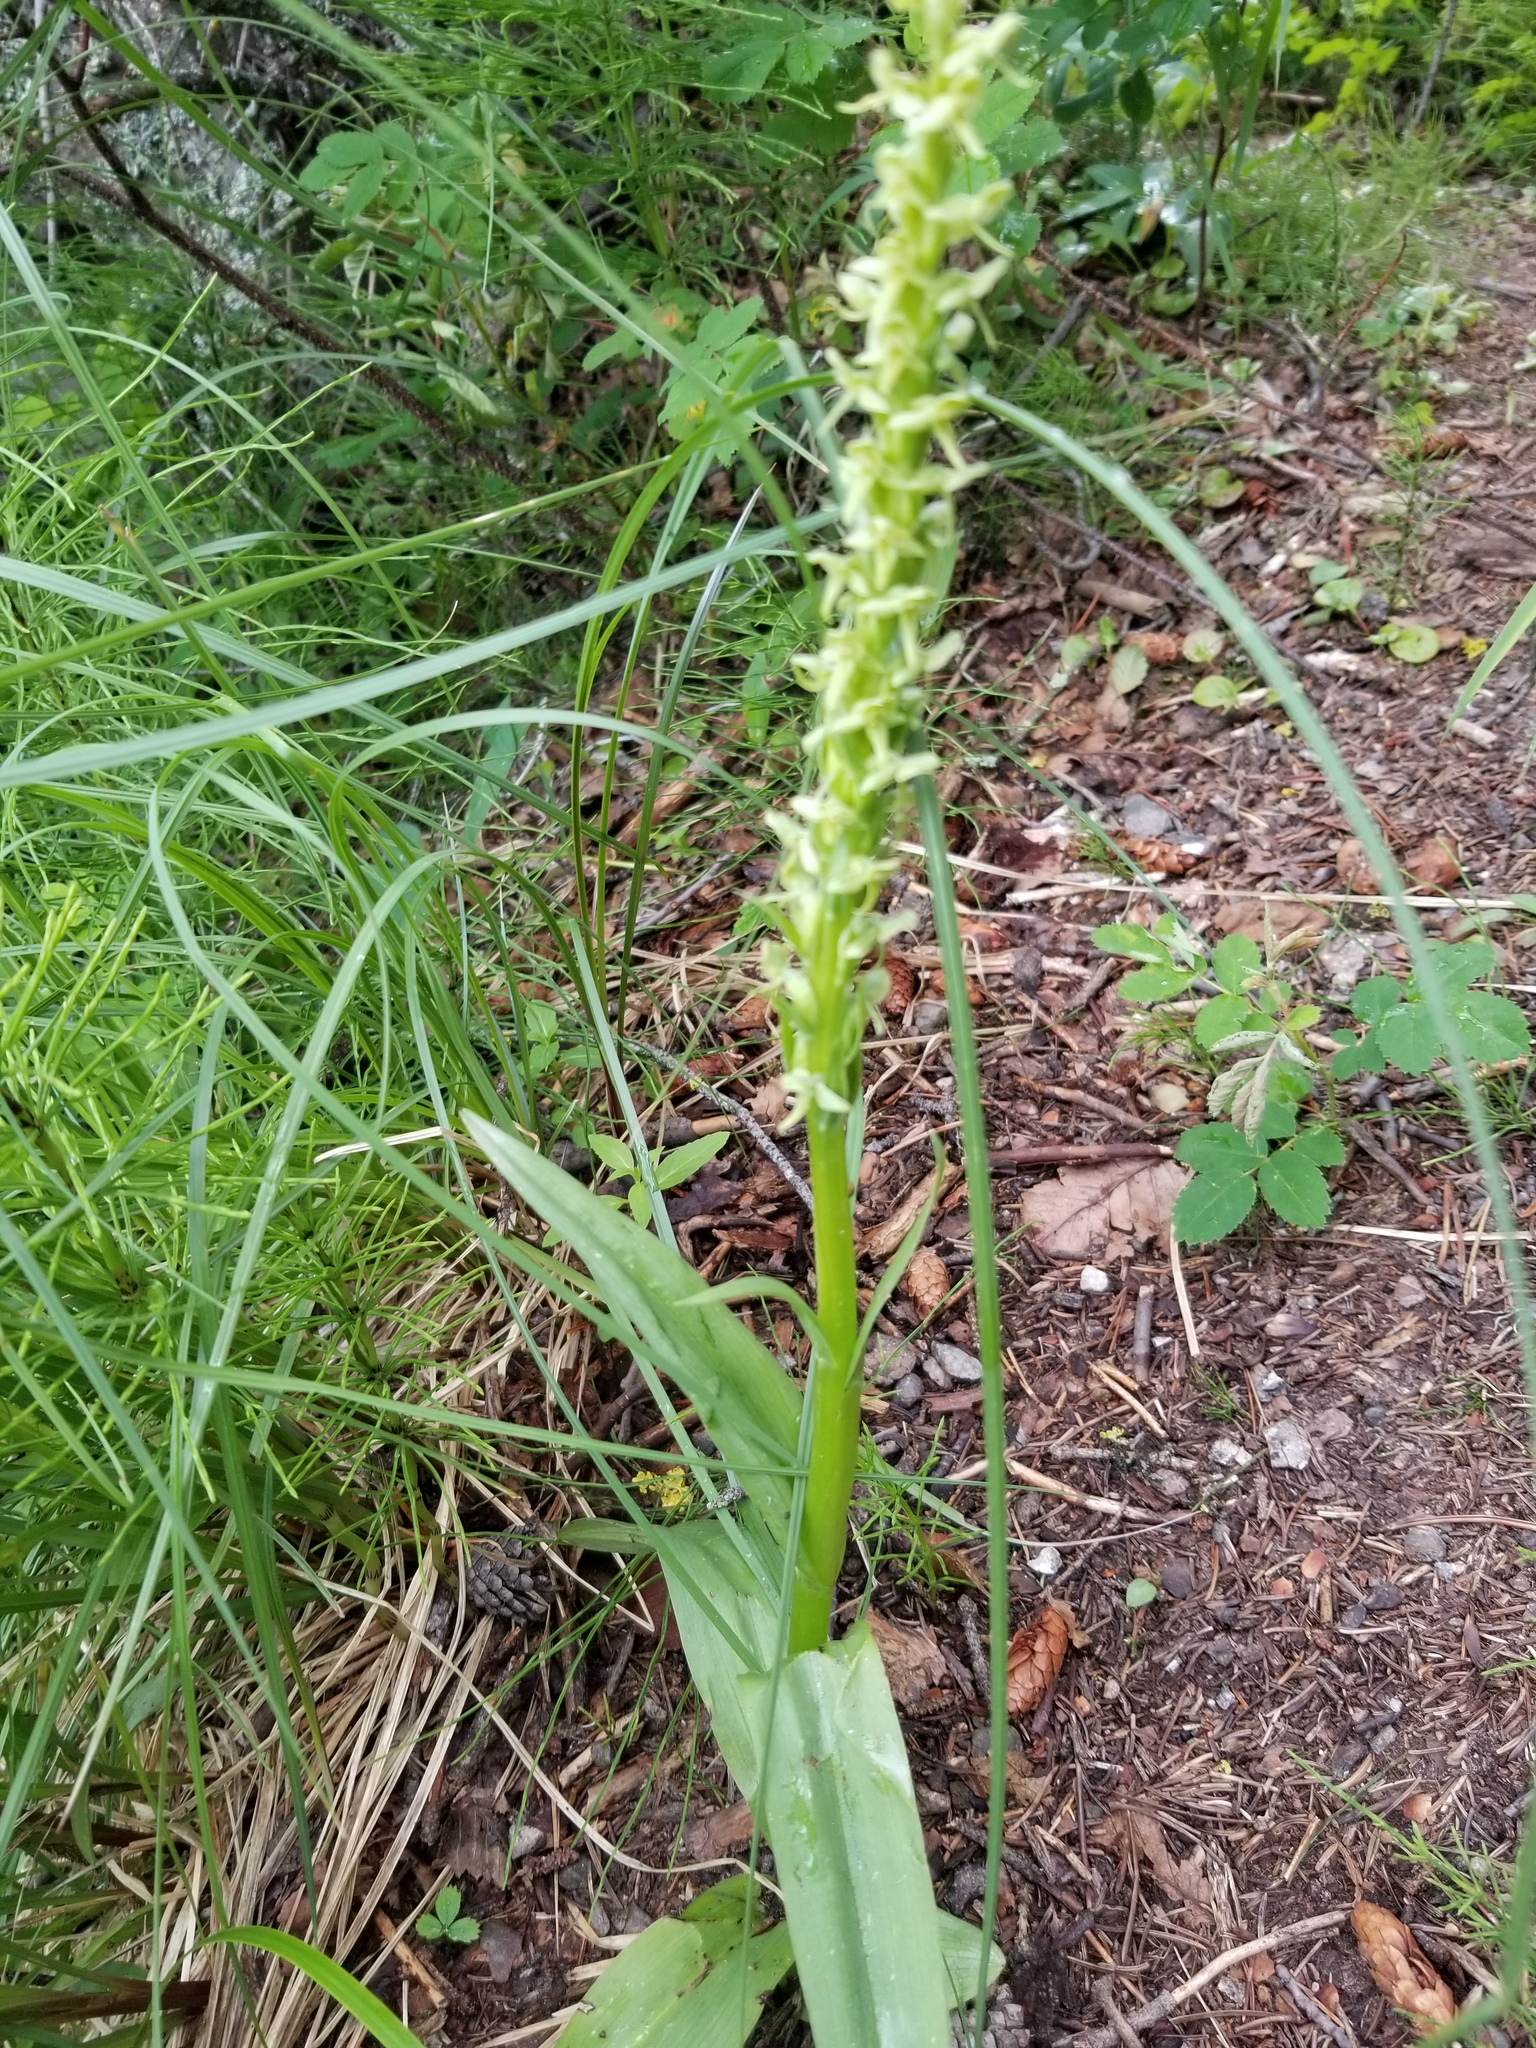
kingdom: Plantae
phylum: Tracheophyta
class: Liliopsida
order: Asparagales
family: Orchidaceae
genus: Platanthera
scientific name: Platanthera huronensis
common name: Fragrant green orchid
